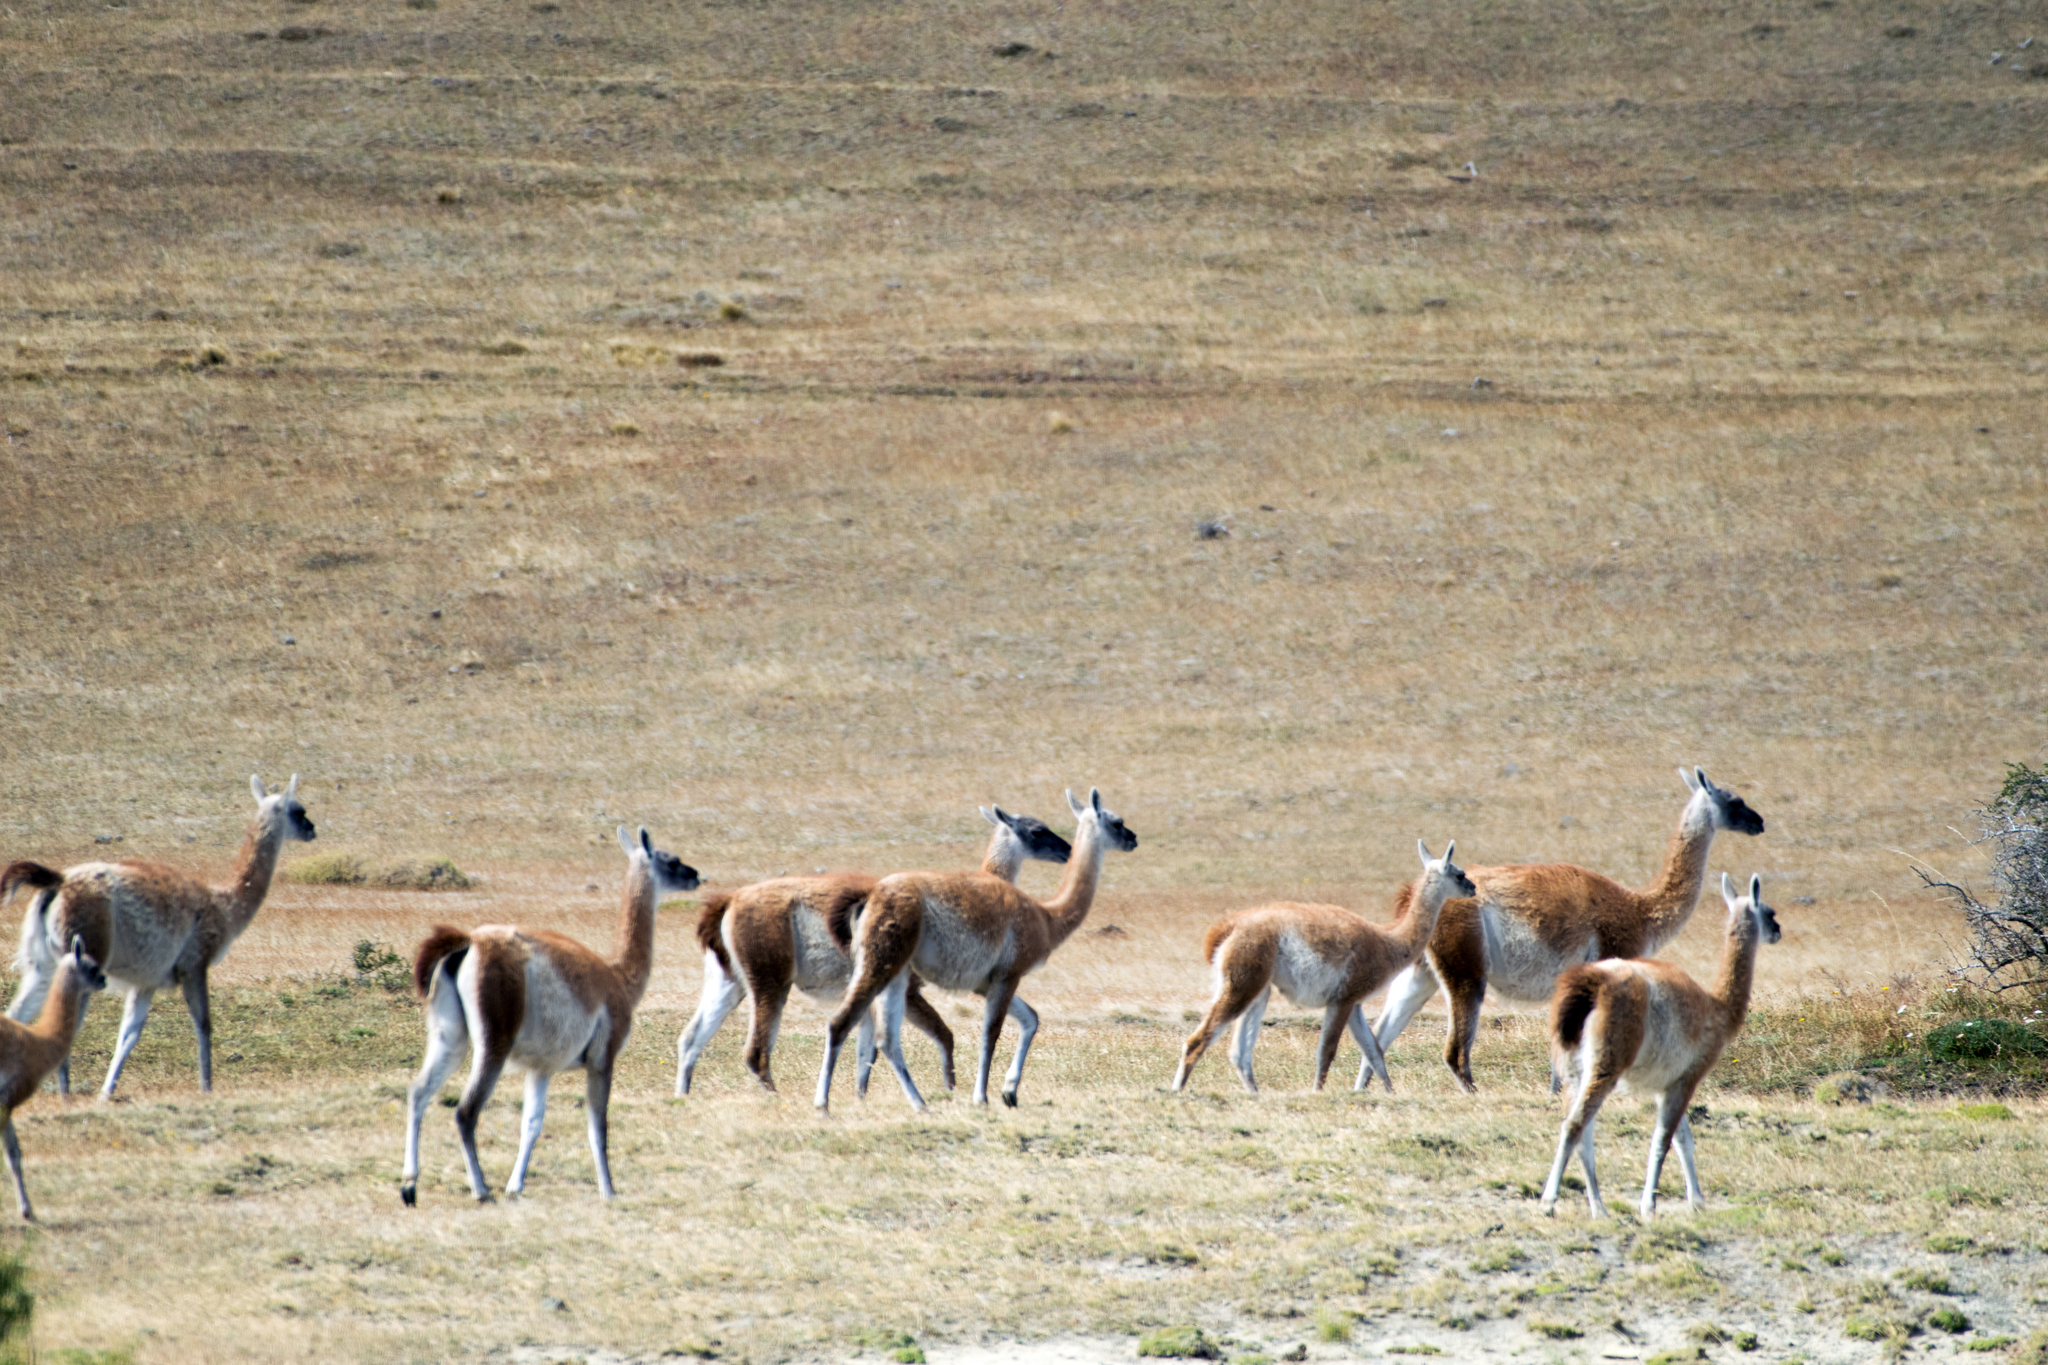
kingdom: Animalia
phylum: Chordata
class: Mammalia
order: Artiodactyla
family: Camelidae
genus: Lama
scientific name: Lama glama
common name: Llama
